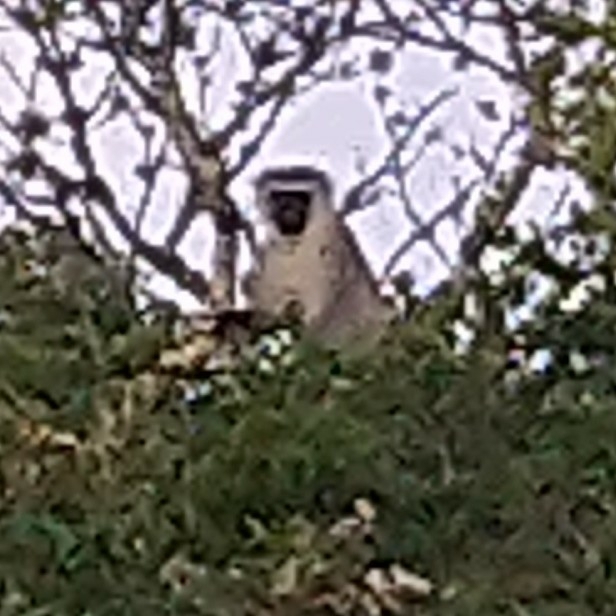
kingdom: Animalia
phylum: Chordata
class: Mammalia
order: Primates
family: Cercopithecidae
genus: Chlorocebus
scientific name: Chlorocebus pygerythrus
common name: Vervet monkey
